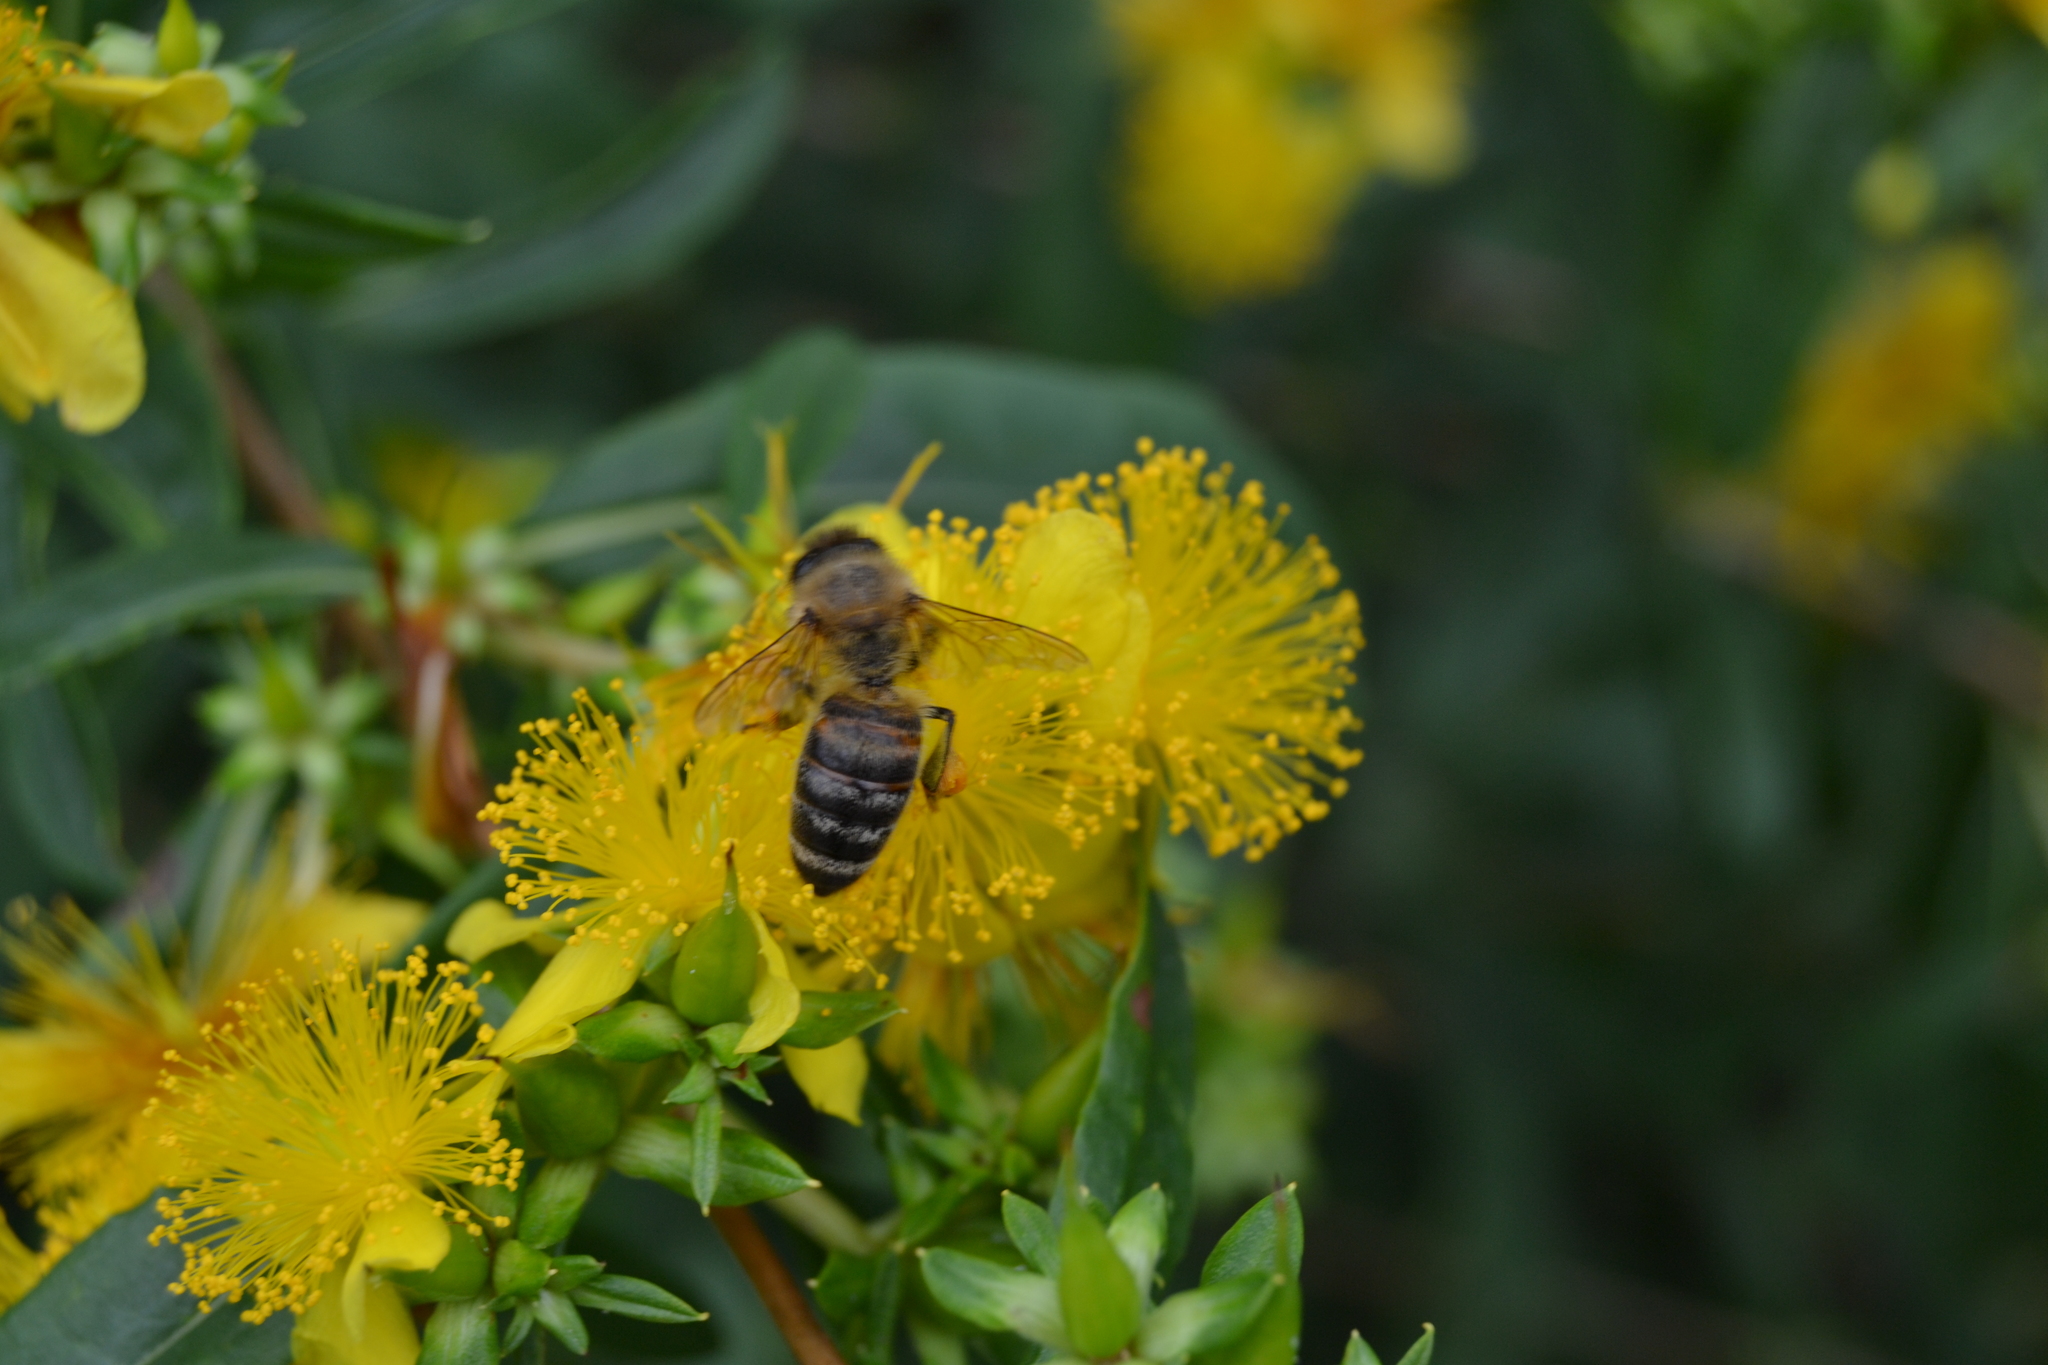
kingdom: Animalia
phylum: Arthropoda
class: Insecta
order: Hymenoptera
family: Apidae
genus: Apis
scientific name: Apis mellifera
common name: Honey bee
